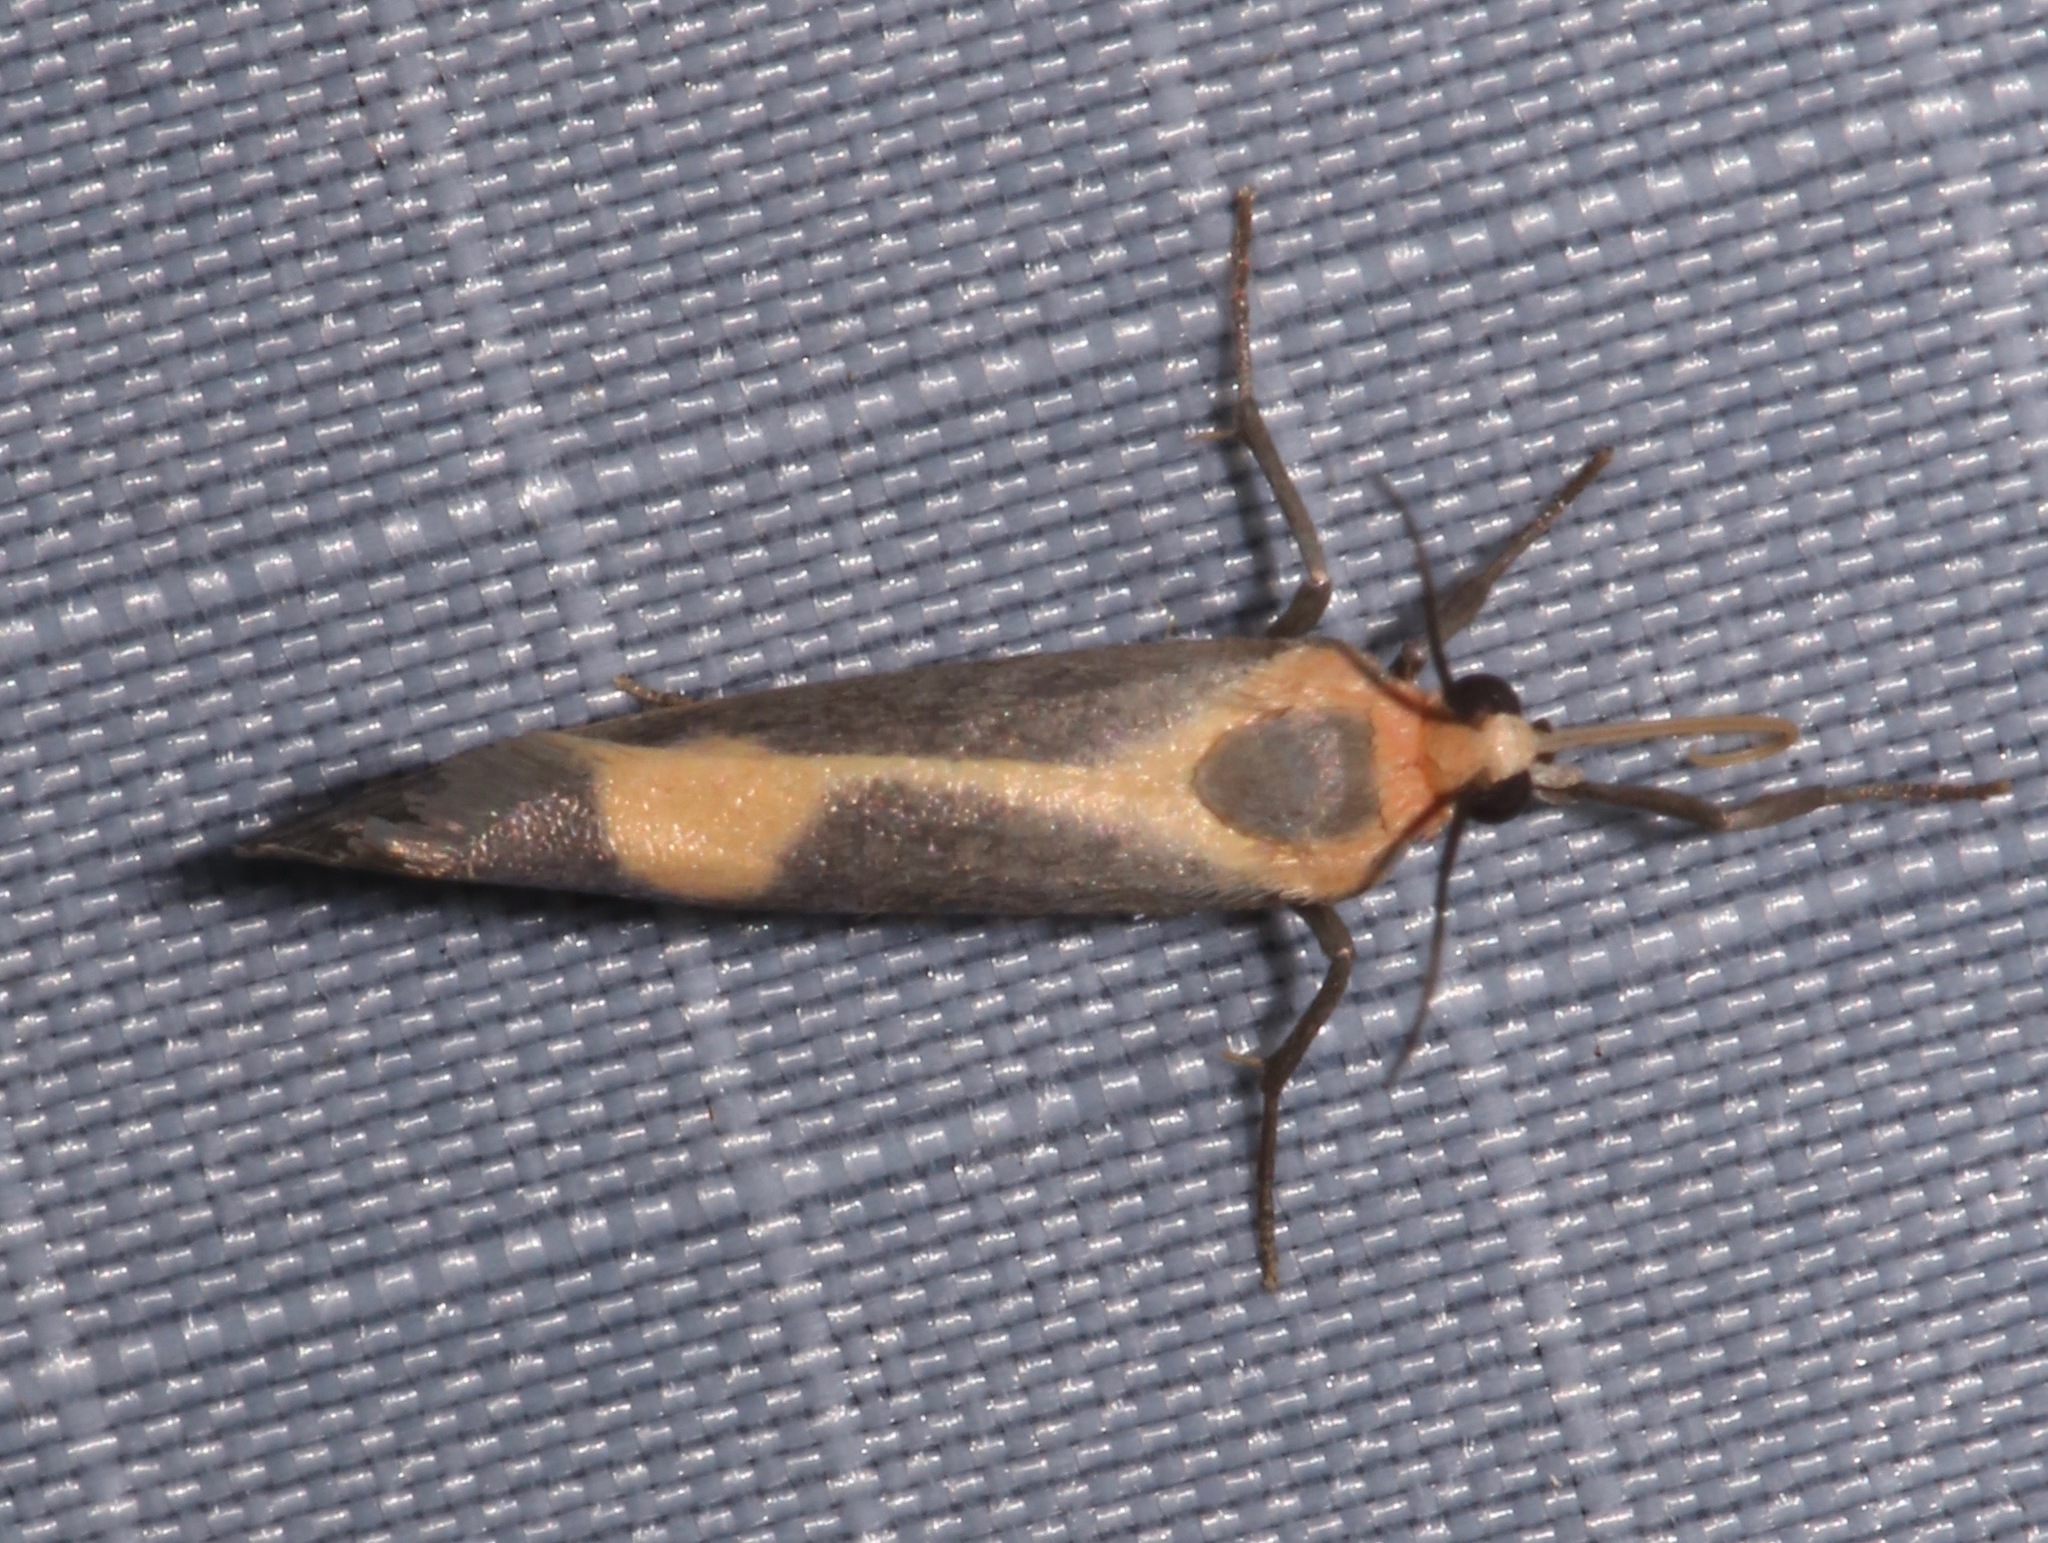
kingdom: Animalia
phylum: Arthropoda
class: Insecta
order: Lepidoptera
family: Erebidae
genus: Cisthene
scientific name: Cisthene plumbea
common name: Lead colored lichen moth
